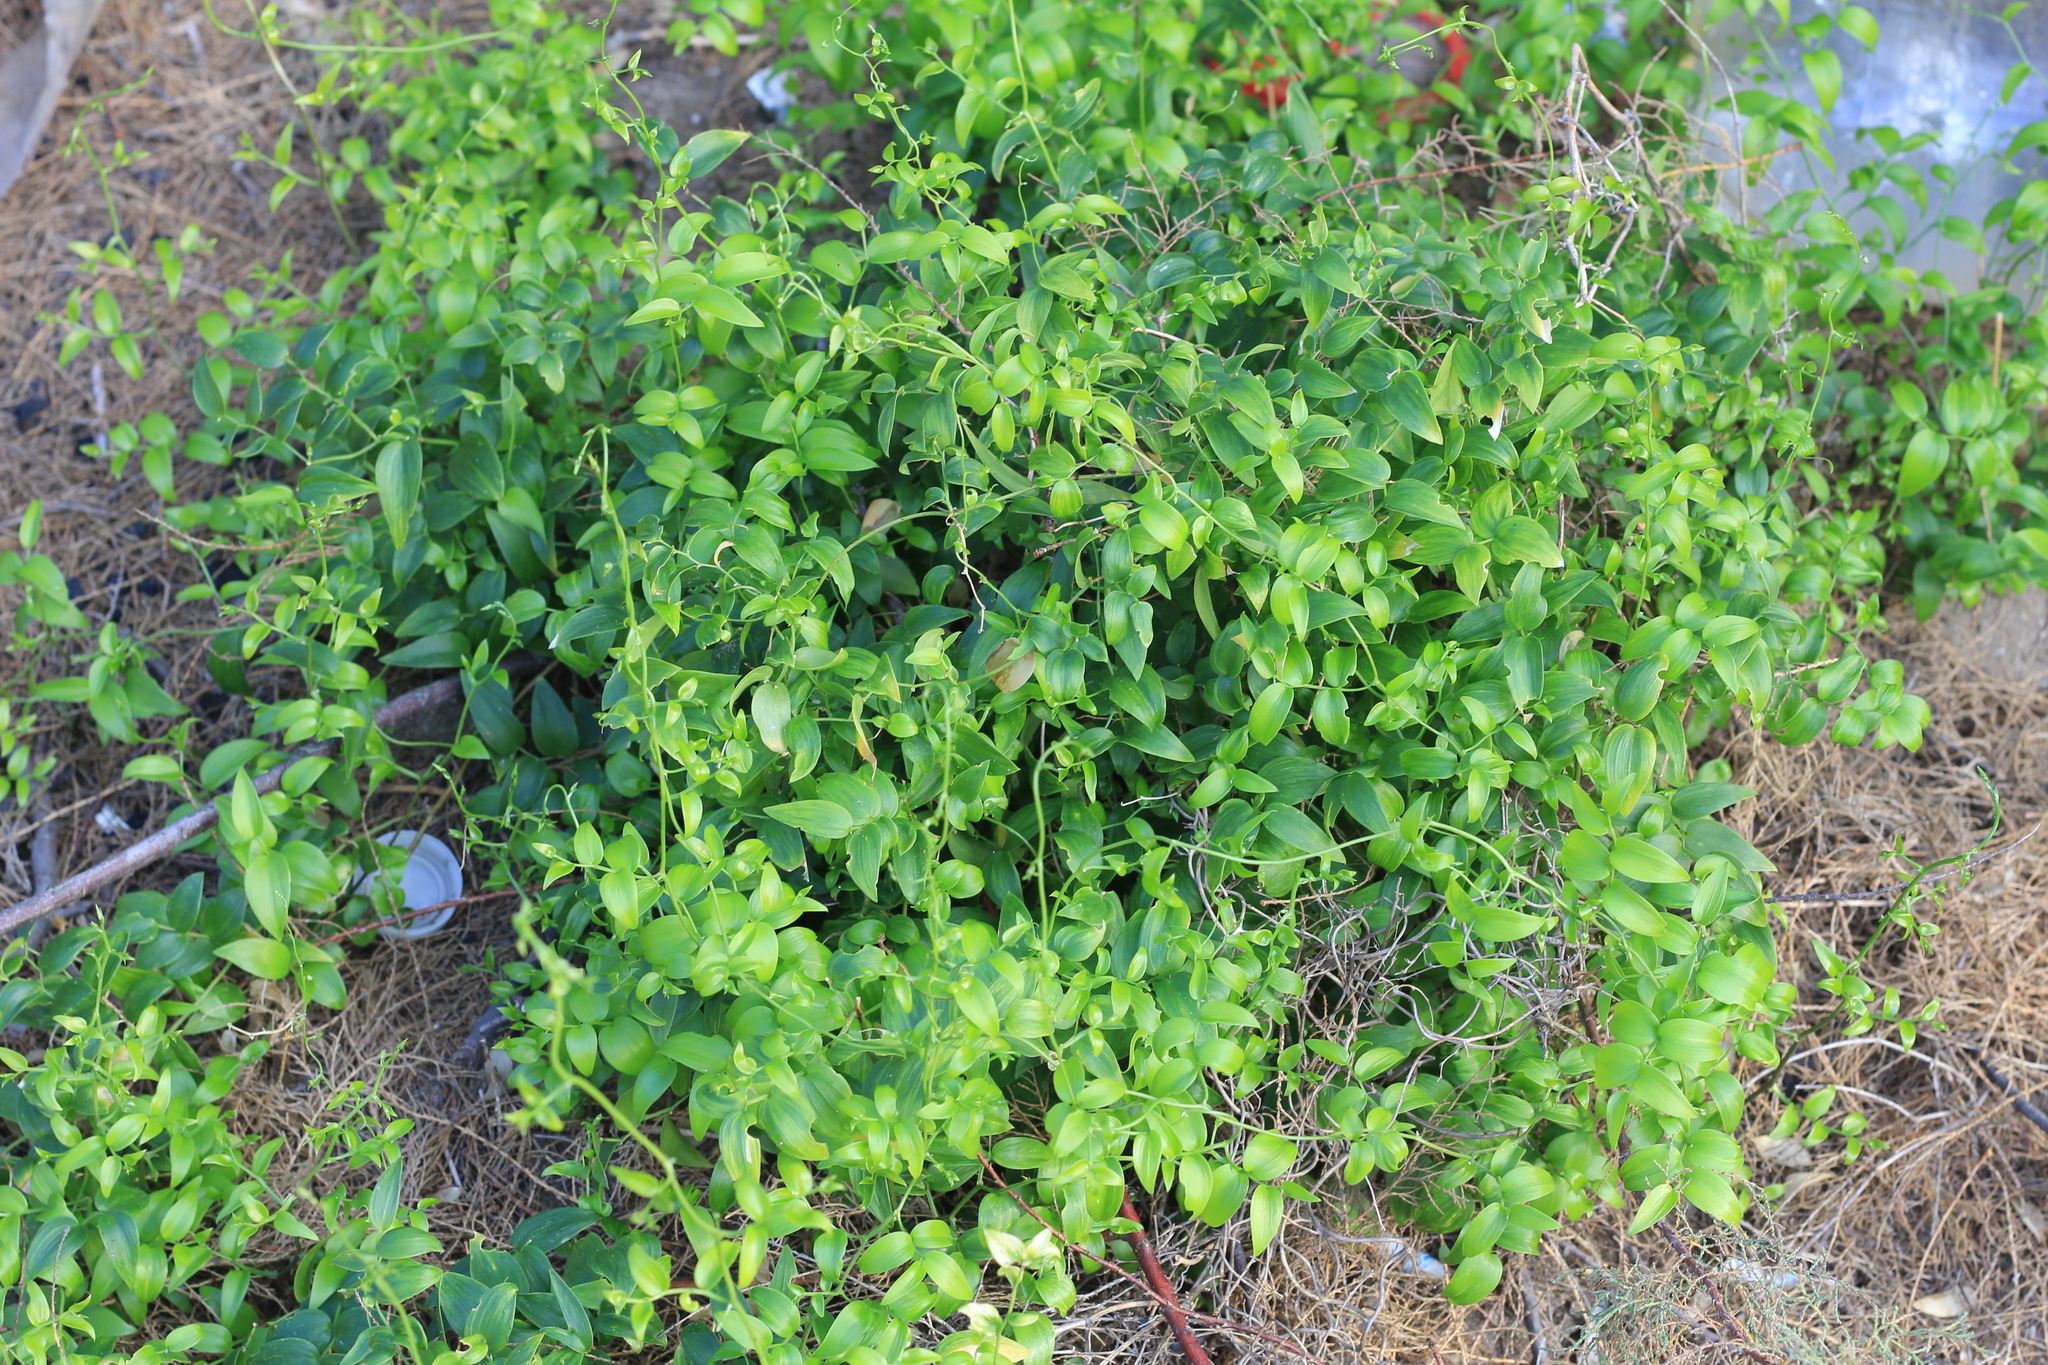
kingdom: Plantae
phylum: Tracheophyta
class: Liliopsida
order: Asparagales
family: Asparagaceae
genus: Asparagus
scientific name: Asparagus asparagoides
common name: African asparagus fern
